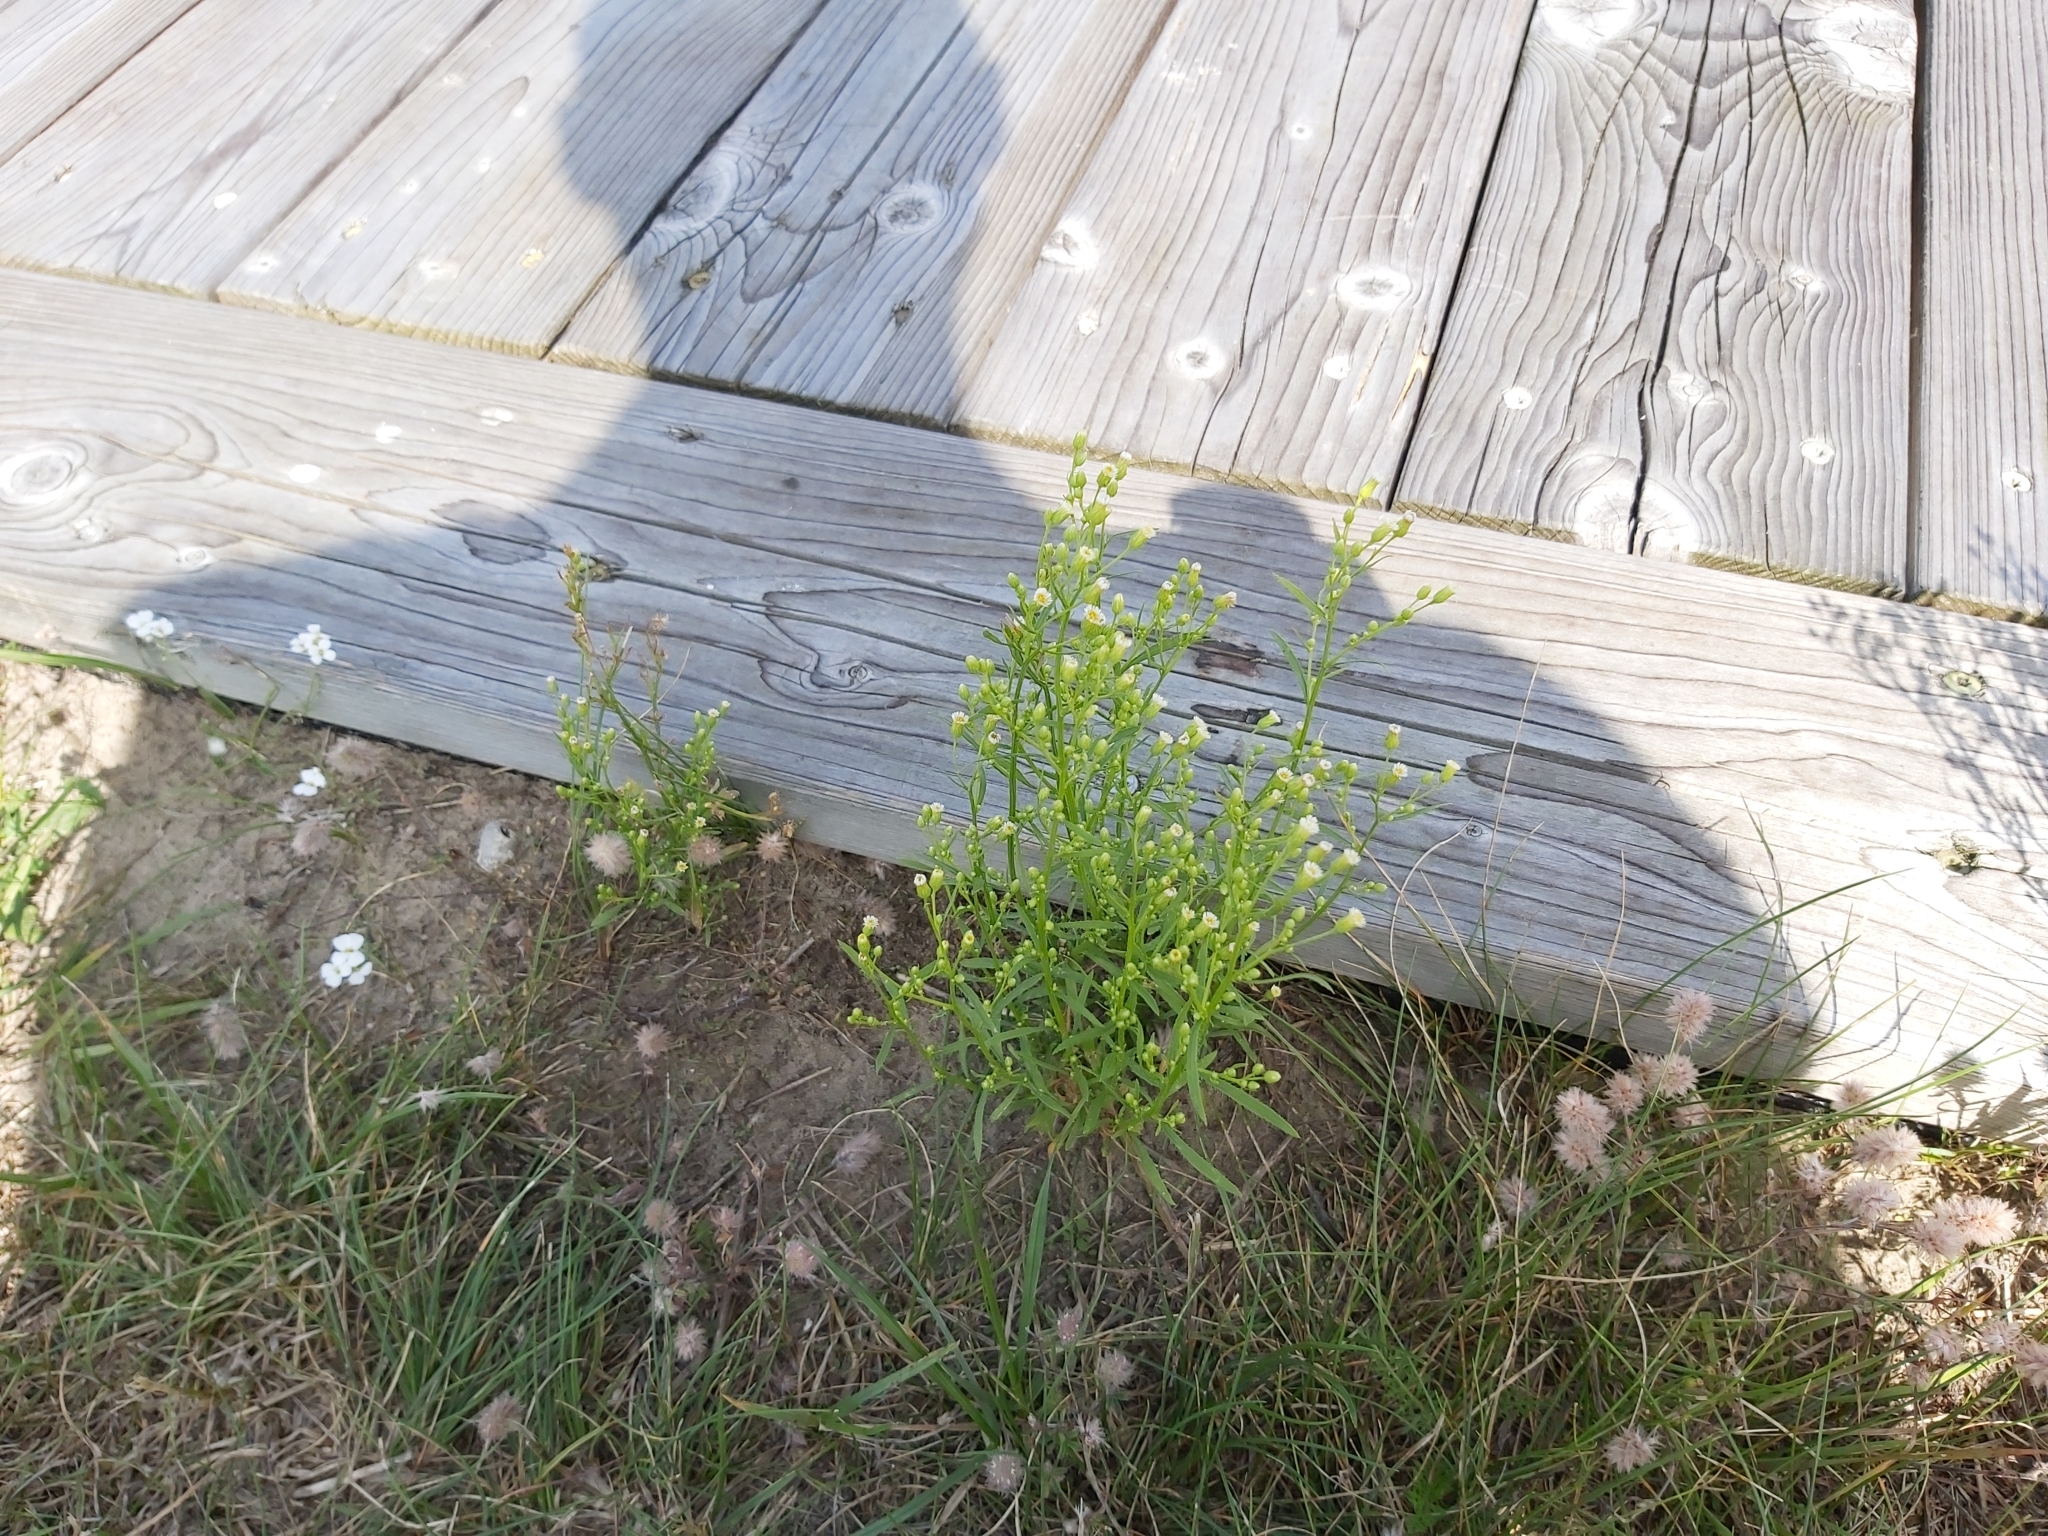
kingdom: Plantae
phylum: Tracheophyta
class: Magnoliopsida
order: Asterales
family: Asteraceae
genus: Erigeron
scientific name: Erigeron canadensis
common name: Canadian fleabane
